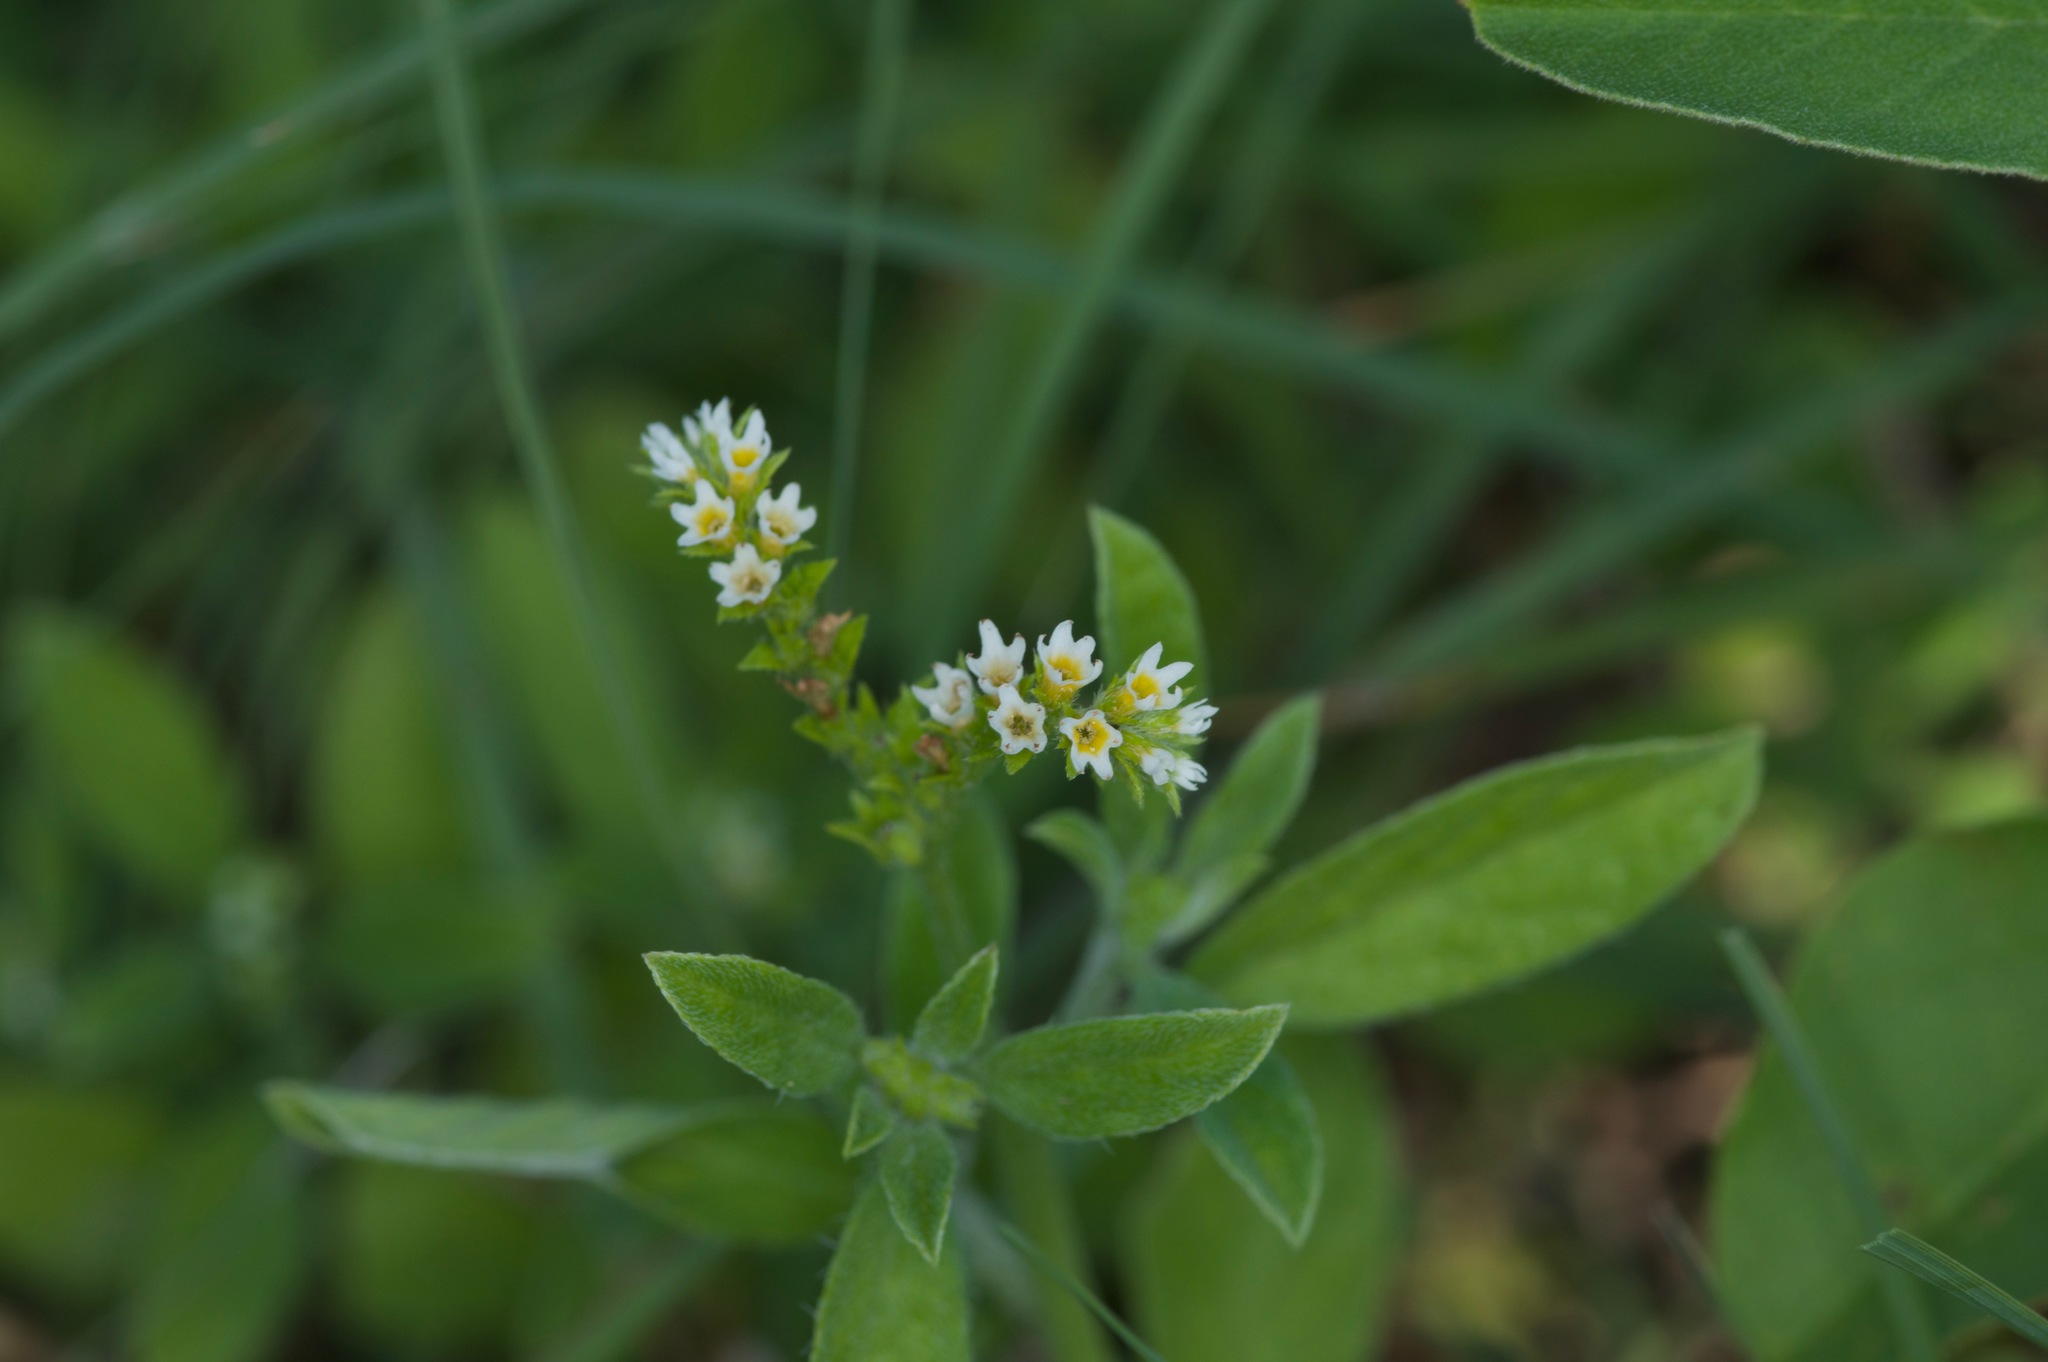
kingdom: Plantae
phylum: Tracheophyta
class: Magnoliopsida
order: Boraginales
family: Heliotropiaceae
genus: Euploca
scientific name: Euploca procumbens
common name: Fourspike heliotrope
